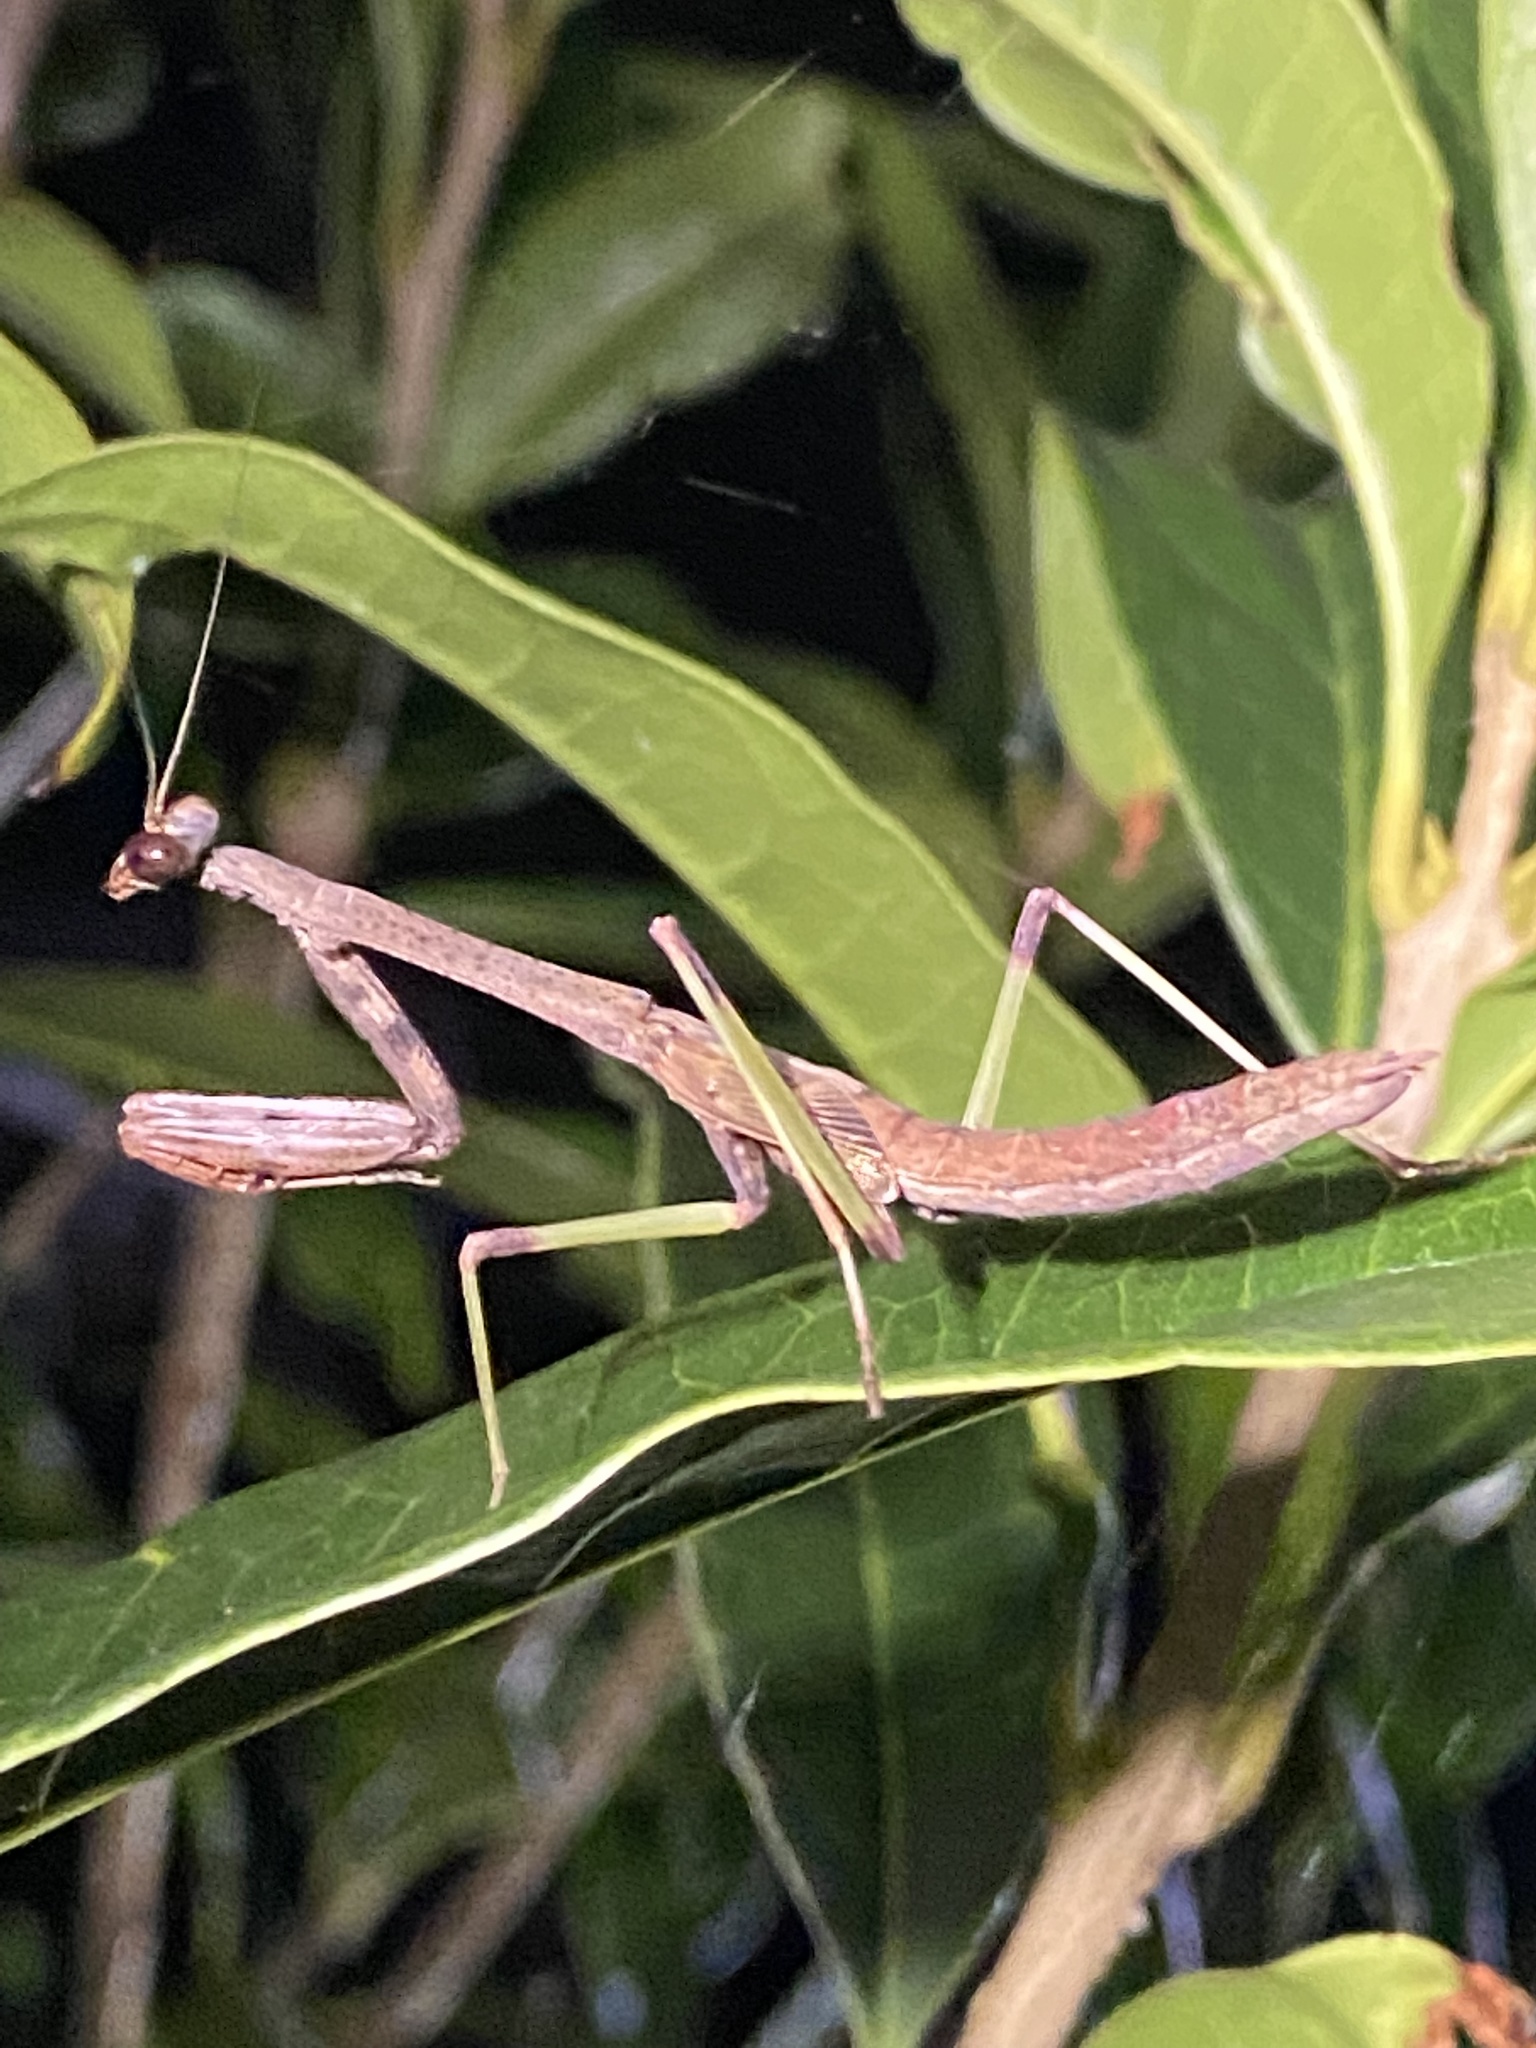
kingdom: Animalia
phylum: Arthropoda
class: Insecta
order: Mantodea
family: Mantidae
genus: Stagmomantis
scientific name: Stagmomantis carolina
